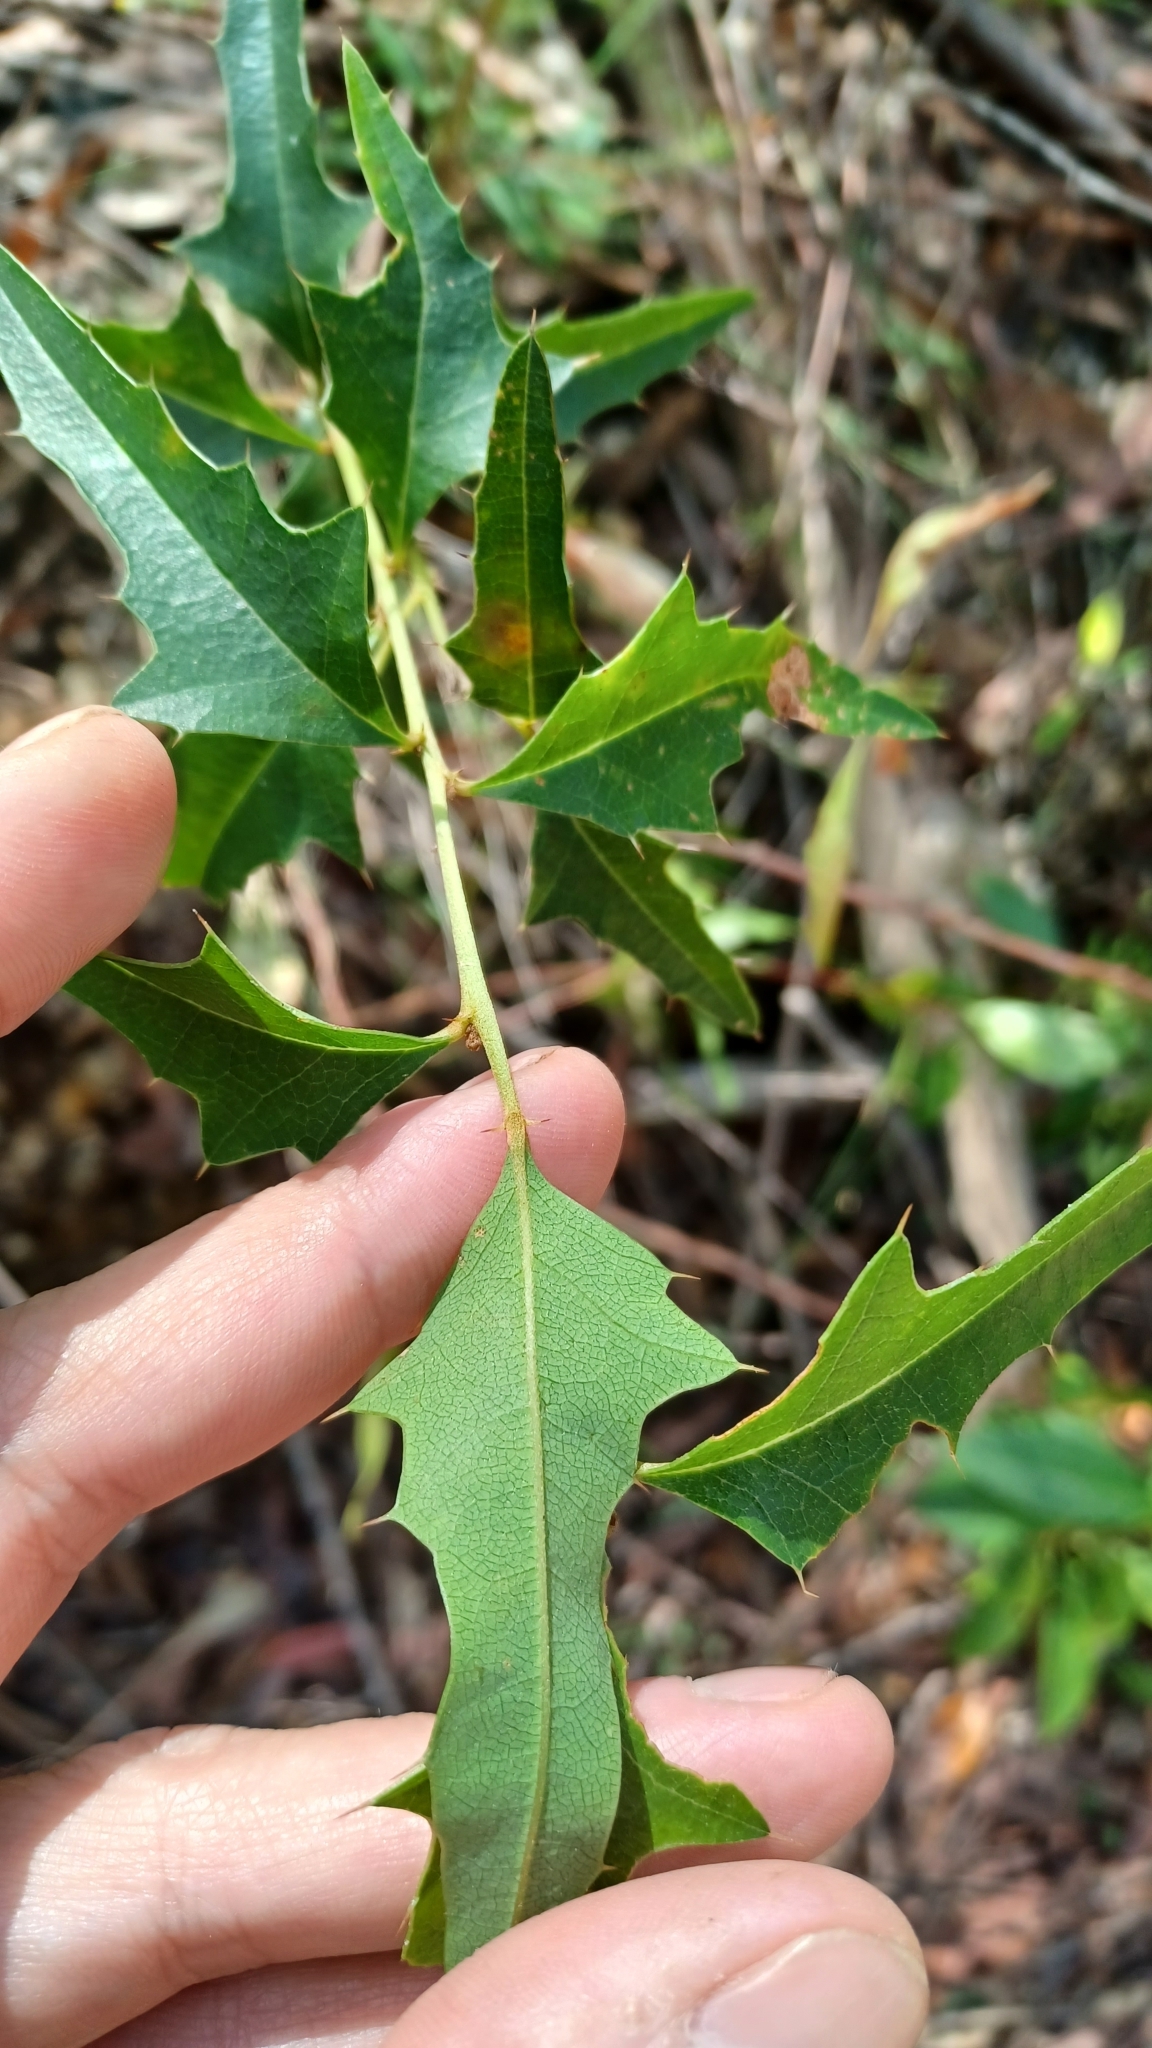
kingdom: Plantae
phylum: Tracheophyta
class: Magnoliopsida
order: Fabales
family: Fabaceae
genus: Podolobium
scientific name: Podolobium ilicifolium
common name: Native holly
